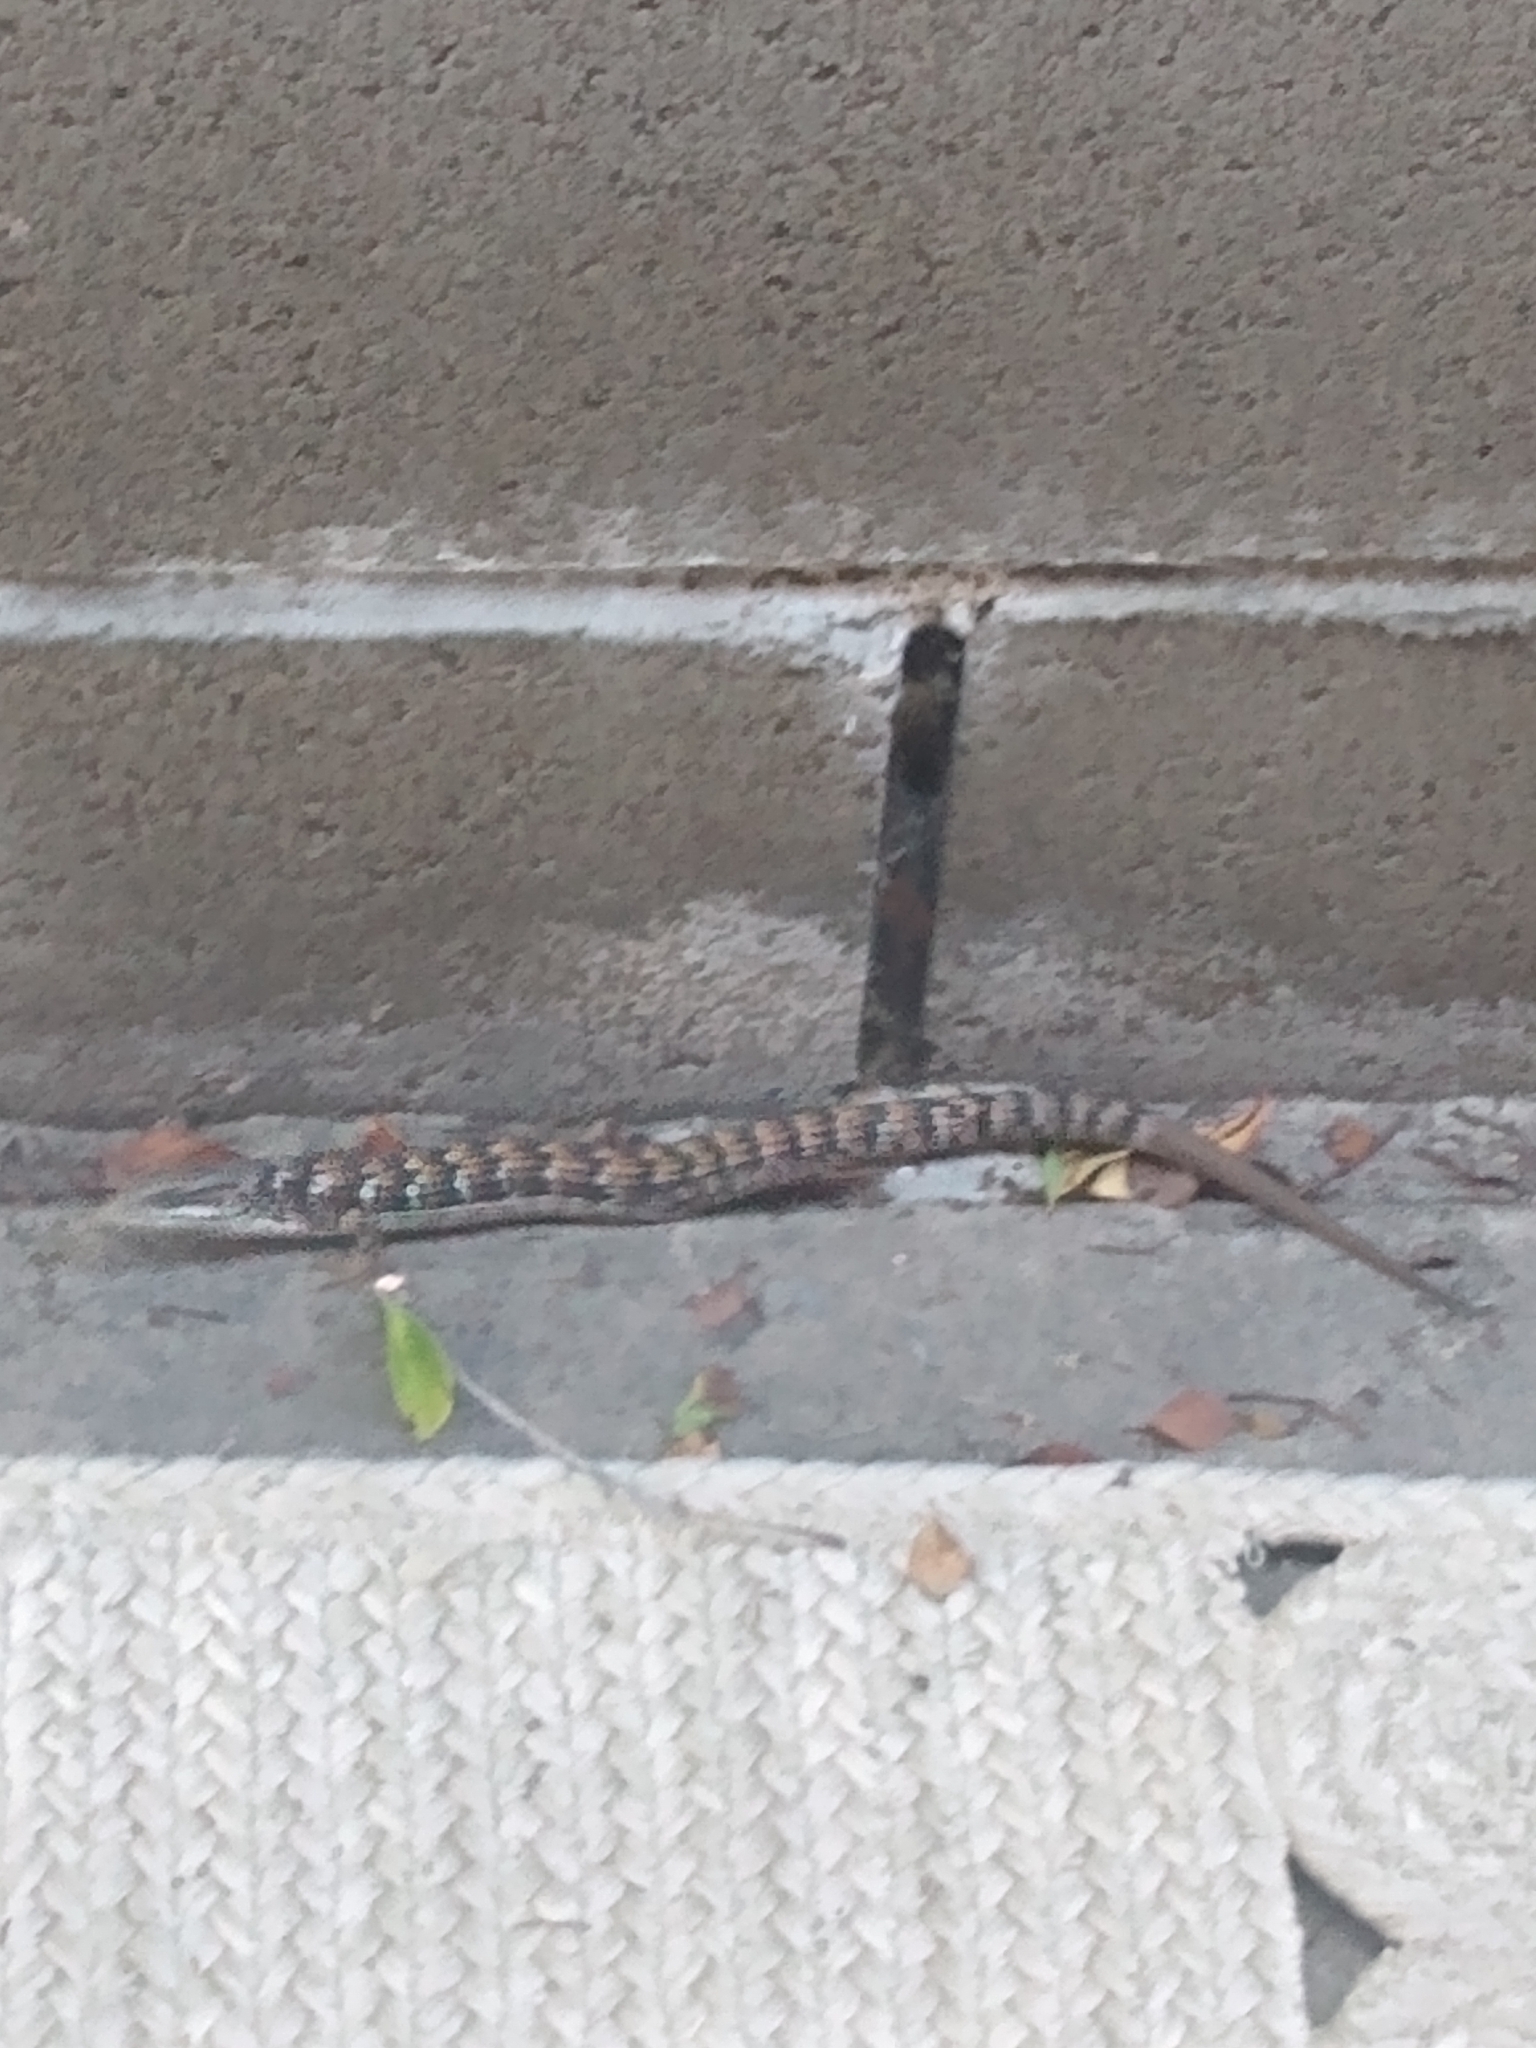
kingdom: Animalia
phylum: Chordata
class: Squamata
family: Anguidae
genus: Elgaria
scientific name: Elgaria multicarinata
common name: Southern alligator lizard
